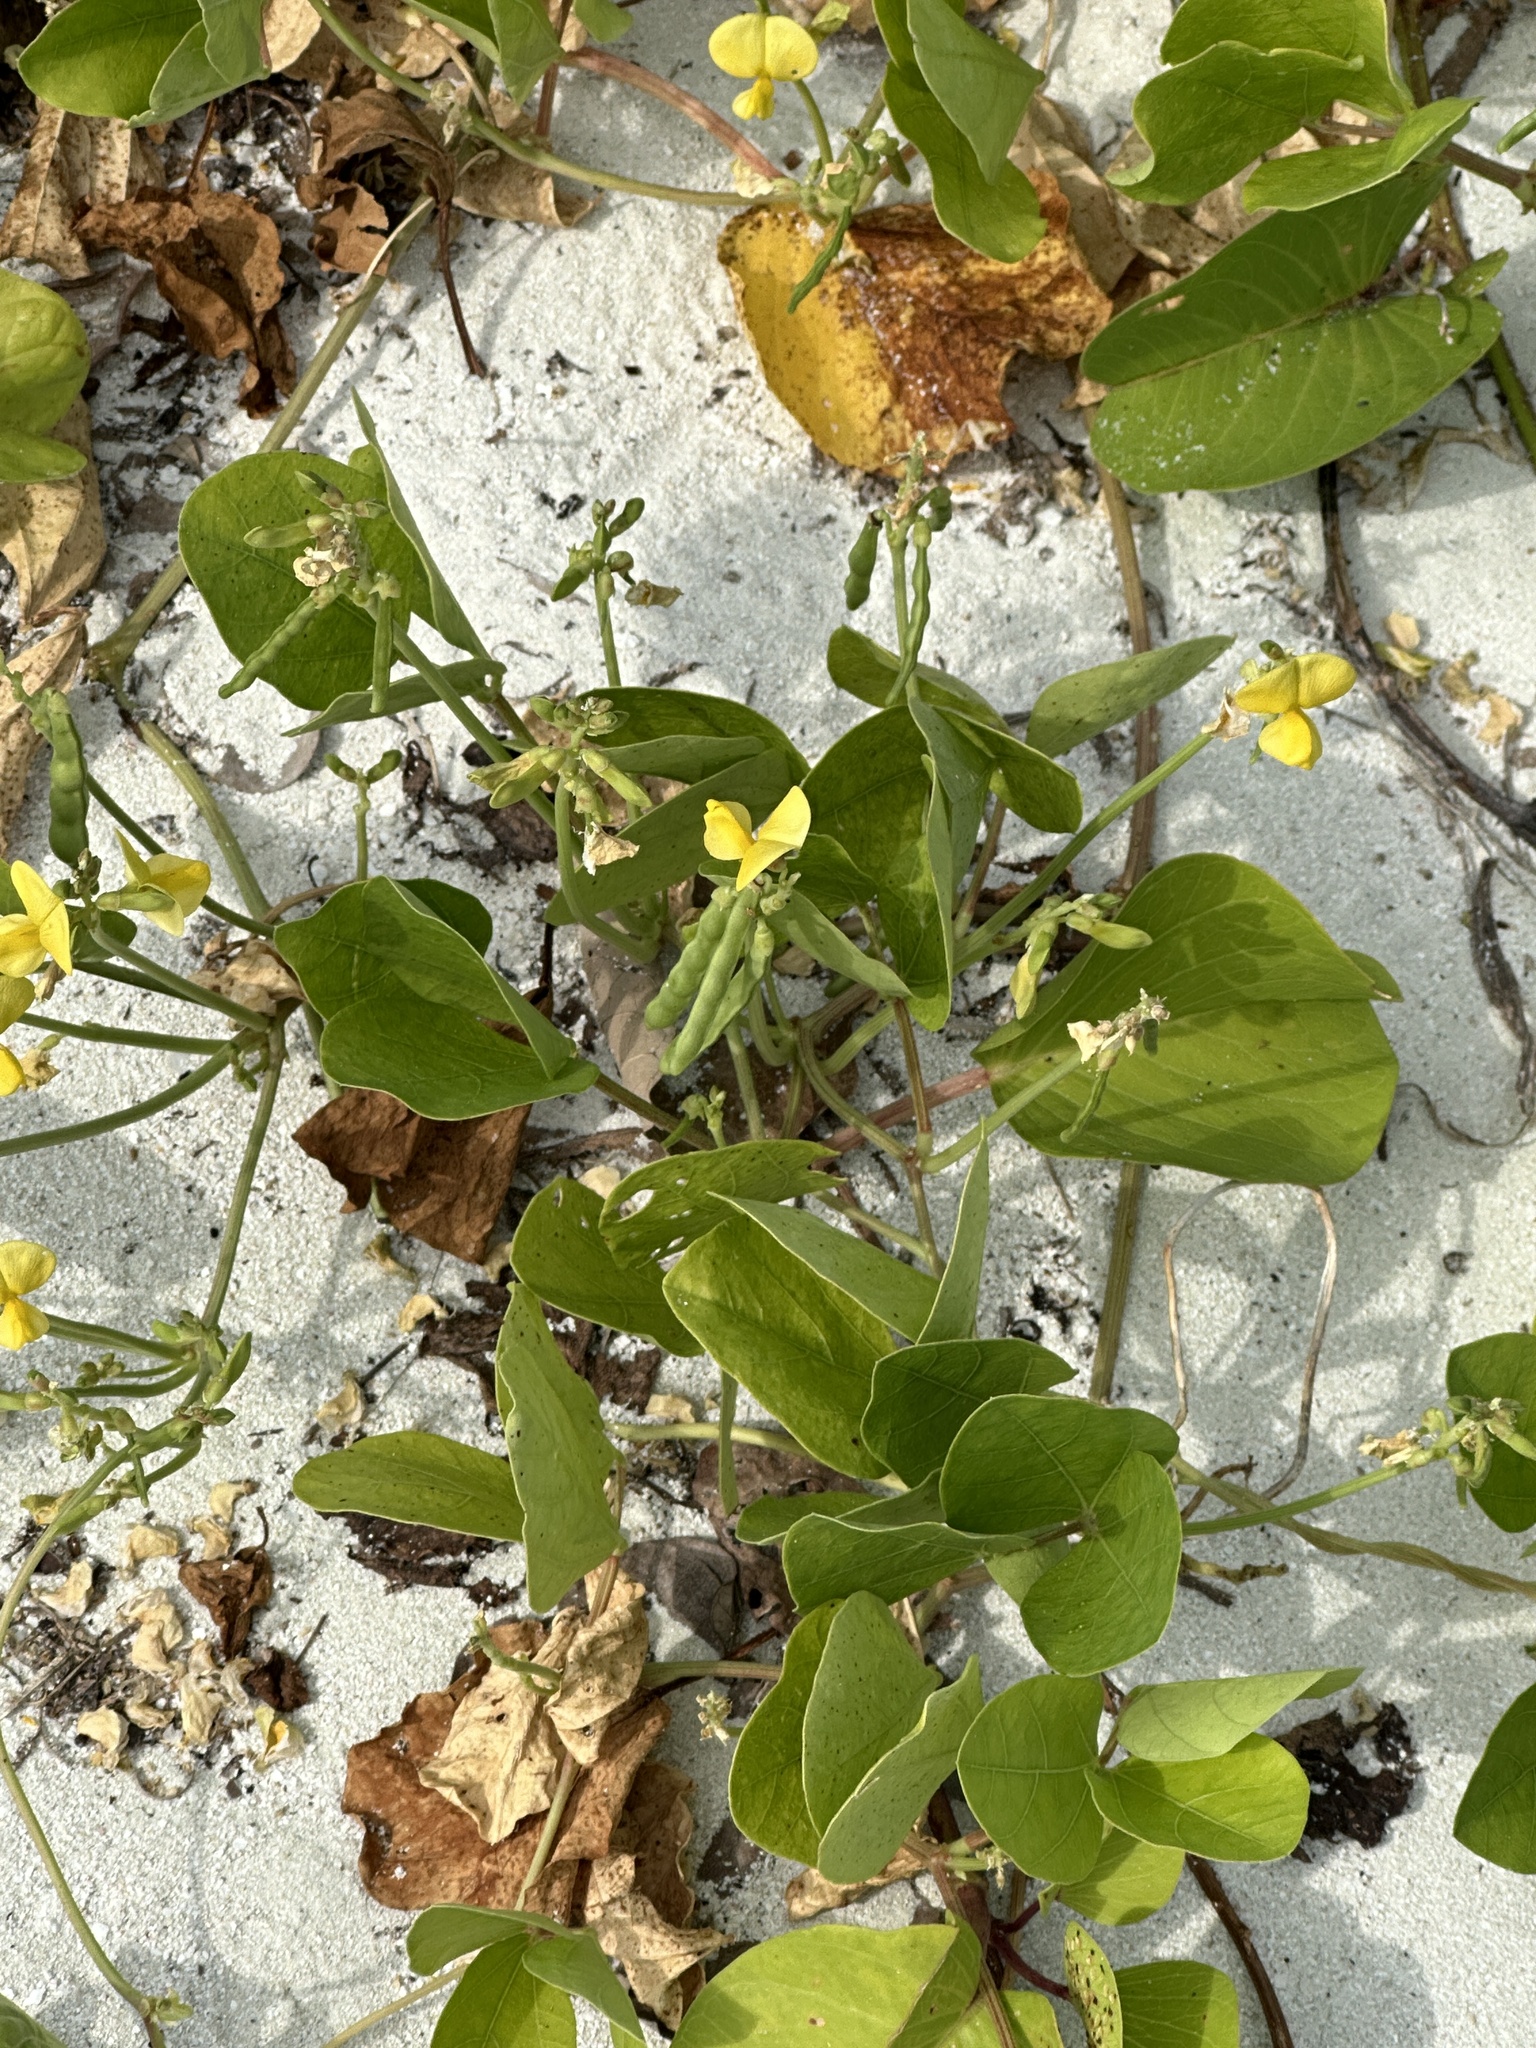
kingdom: Plantae
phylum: Tracheophyta
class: Magnoliopsida
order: Fabales
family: Fabaceae
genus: Vigna
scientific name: Vigna luteola
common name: Hairypod cowpea
